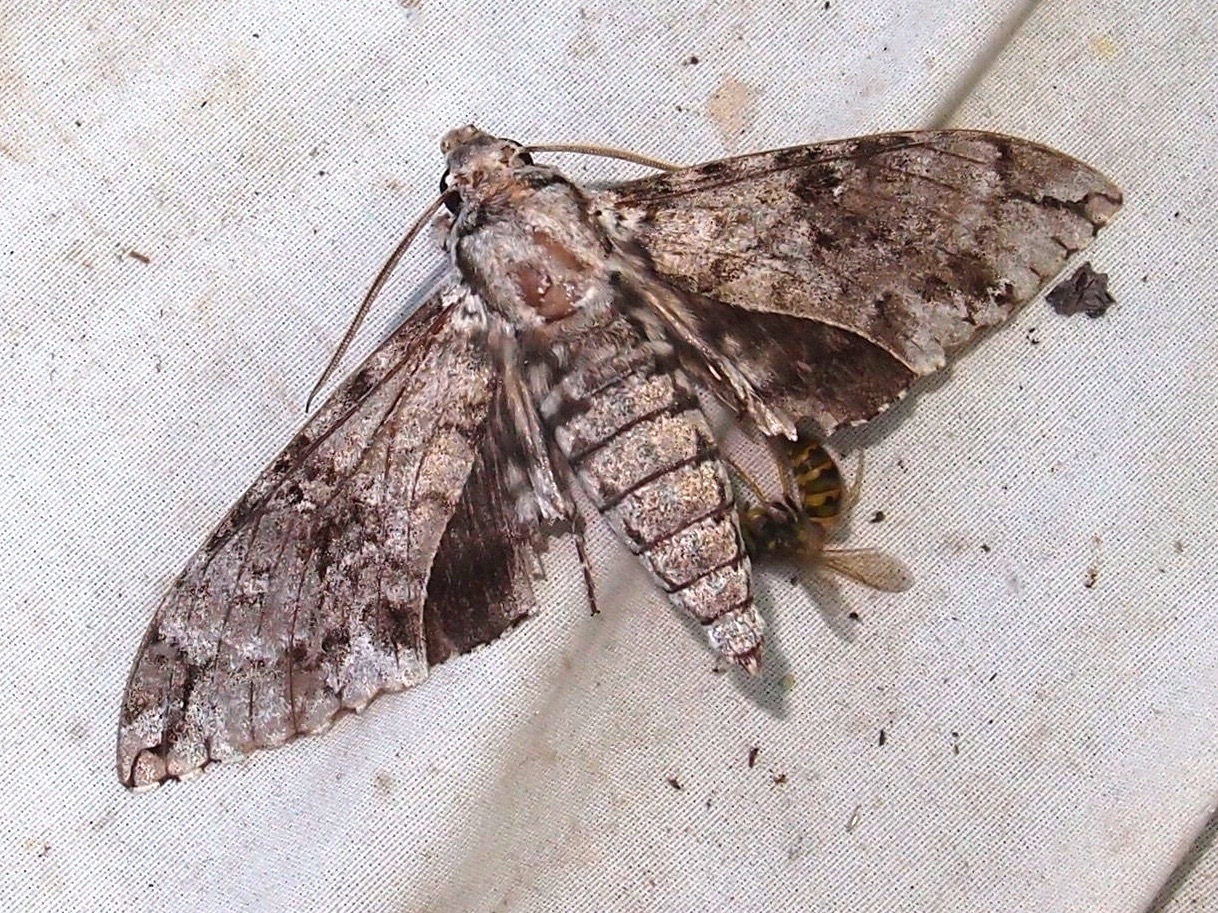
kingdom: Animalia
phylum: Arthropoda
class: Insecta
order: Lepidoptera
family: Sphingidae
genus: Manduca
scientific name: Manduca florestan
